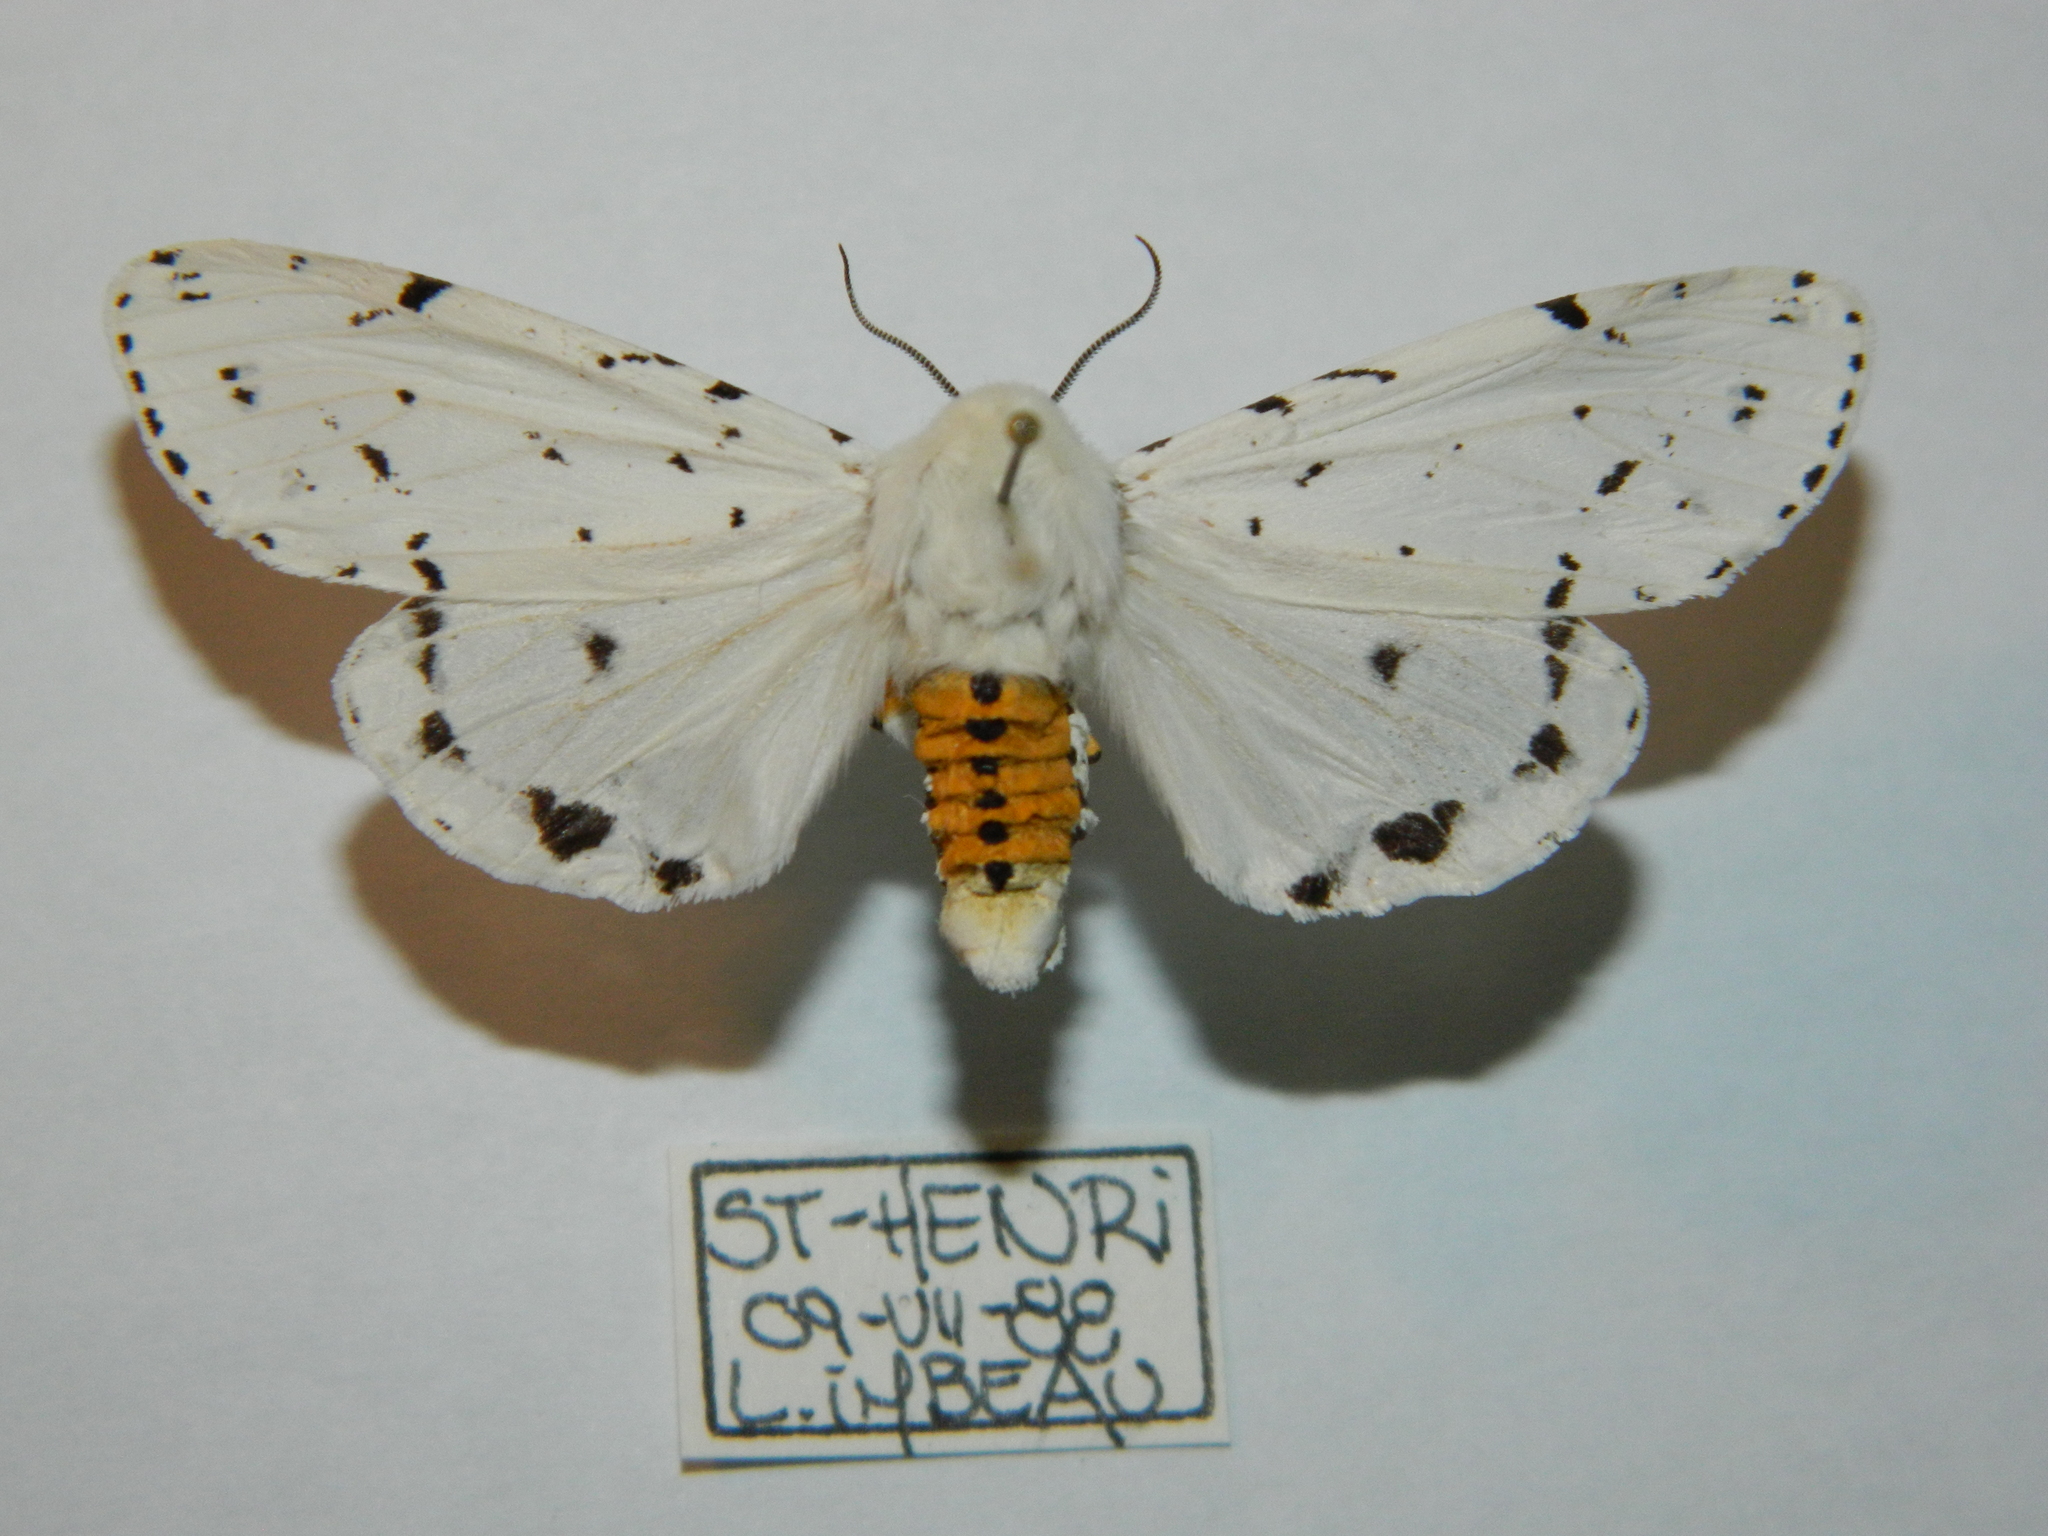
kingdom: Animalia
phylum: Arthropoda
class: Insecta
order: Lepidoptera
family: Erebidae
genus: Estigmene
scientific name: Estigmene acrea
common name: Salt marsh moth
